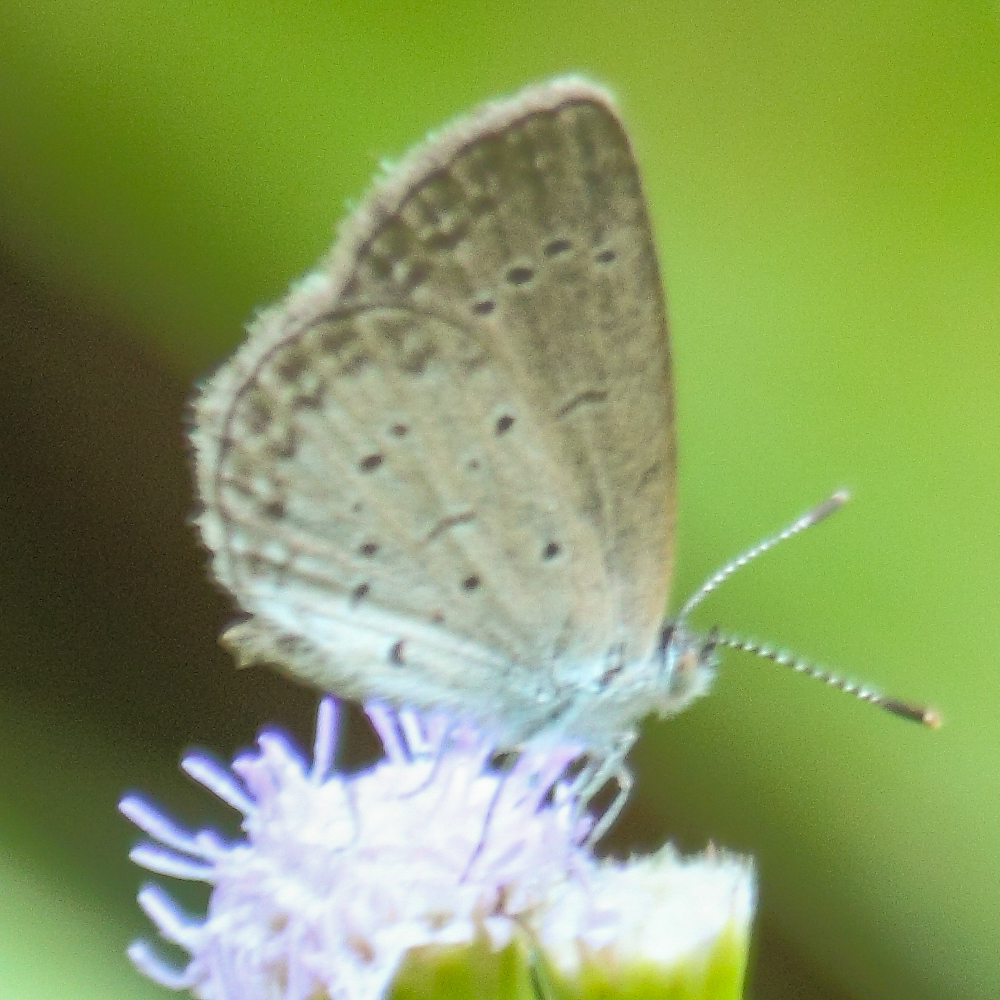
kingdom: Animalia
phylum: Arthropoda
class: Insecta
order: Lepidoptera
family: Lycaenidae
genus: Zizina
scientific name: Zizina otis
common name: Lesser grass blue
